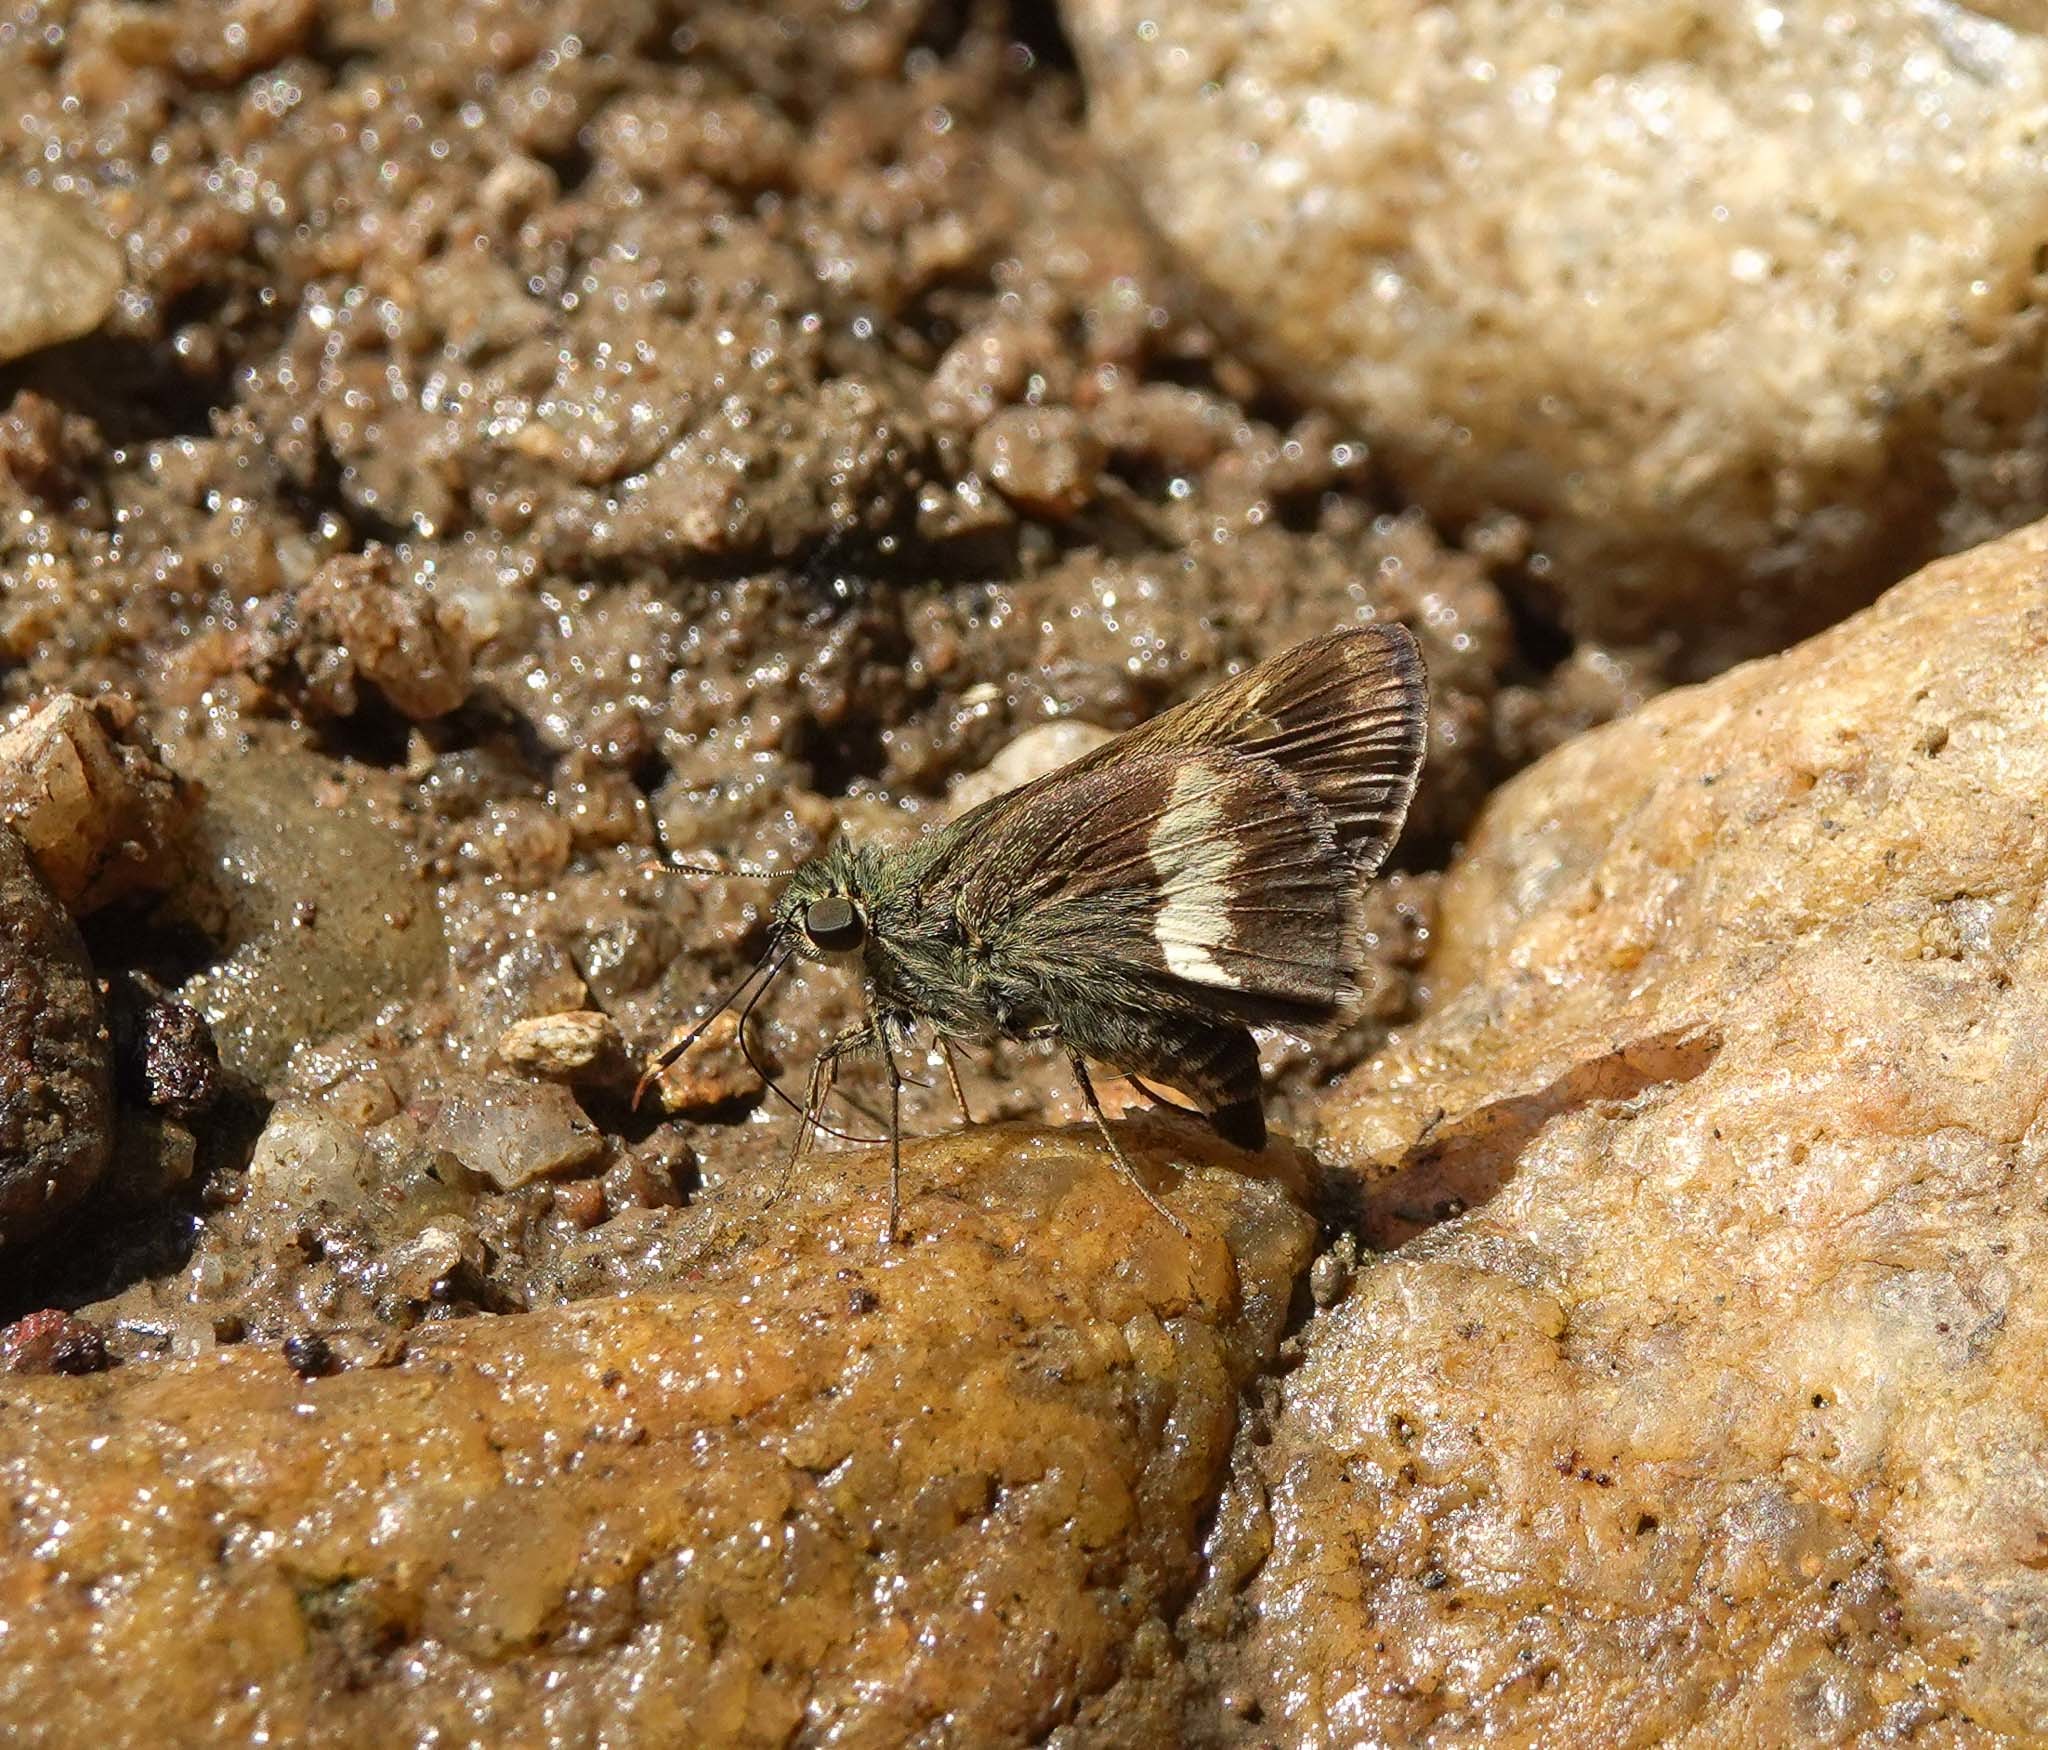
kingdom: Animalia
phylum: Arthropoda
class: Insecta
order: Lepidoptera
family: Hesperiidae
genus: Halpe
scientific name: Halpe zema
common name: Dark banded ace
